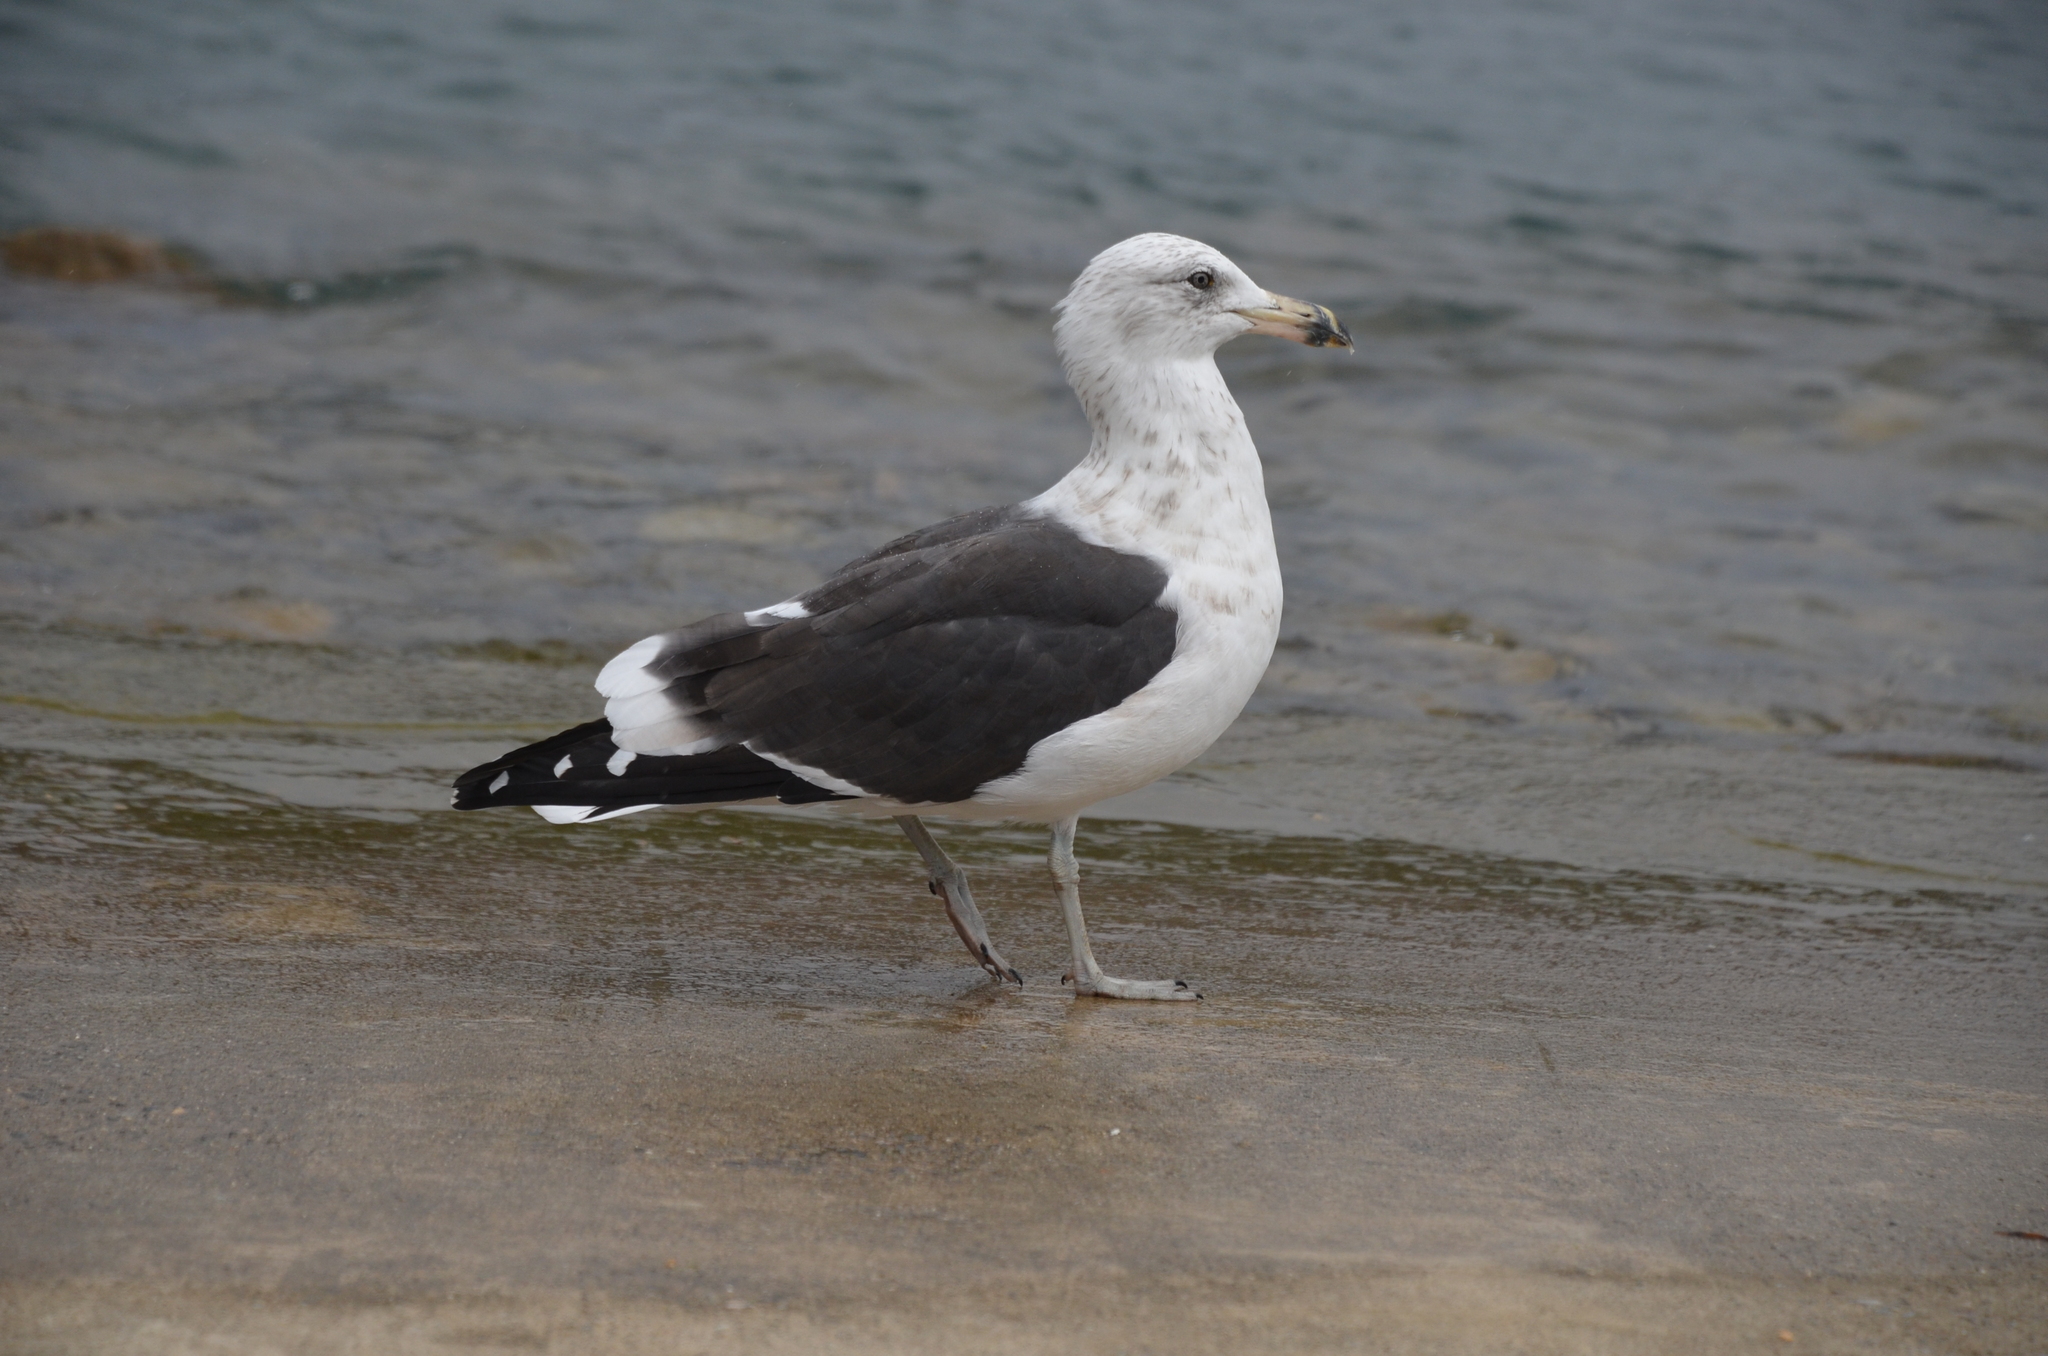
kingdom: Animalia
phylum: Chordata
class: Aves
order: Charadriiformes
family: Laridae
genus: Larus
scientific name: Larus dominicanus
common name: Kelp gull
